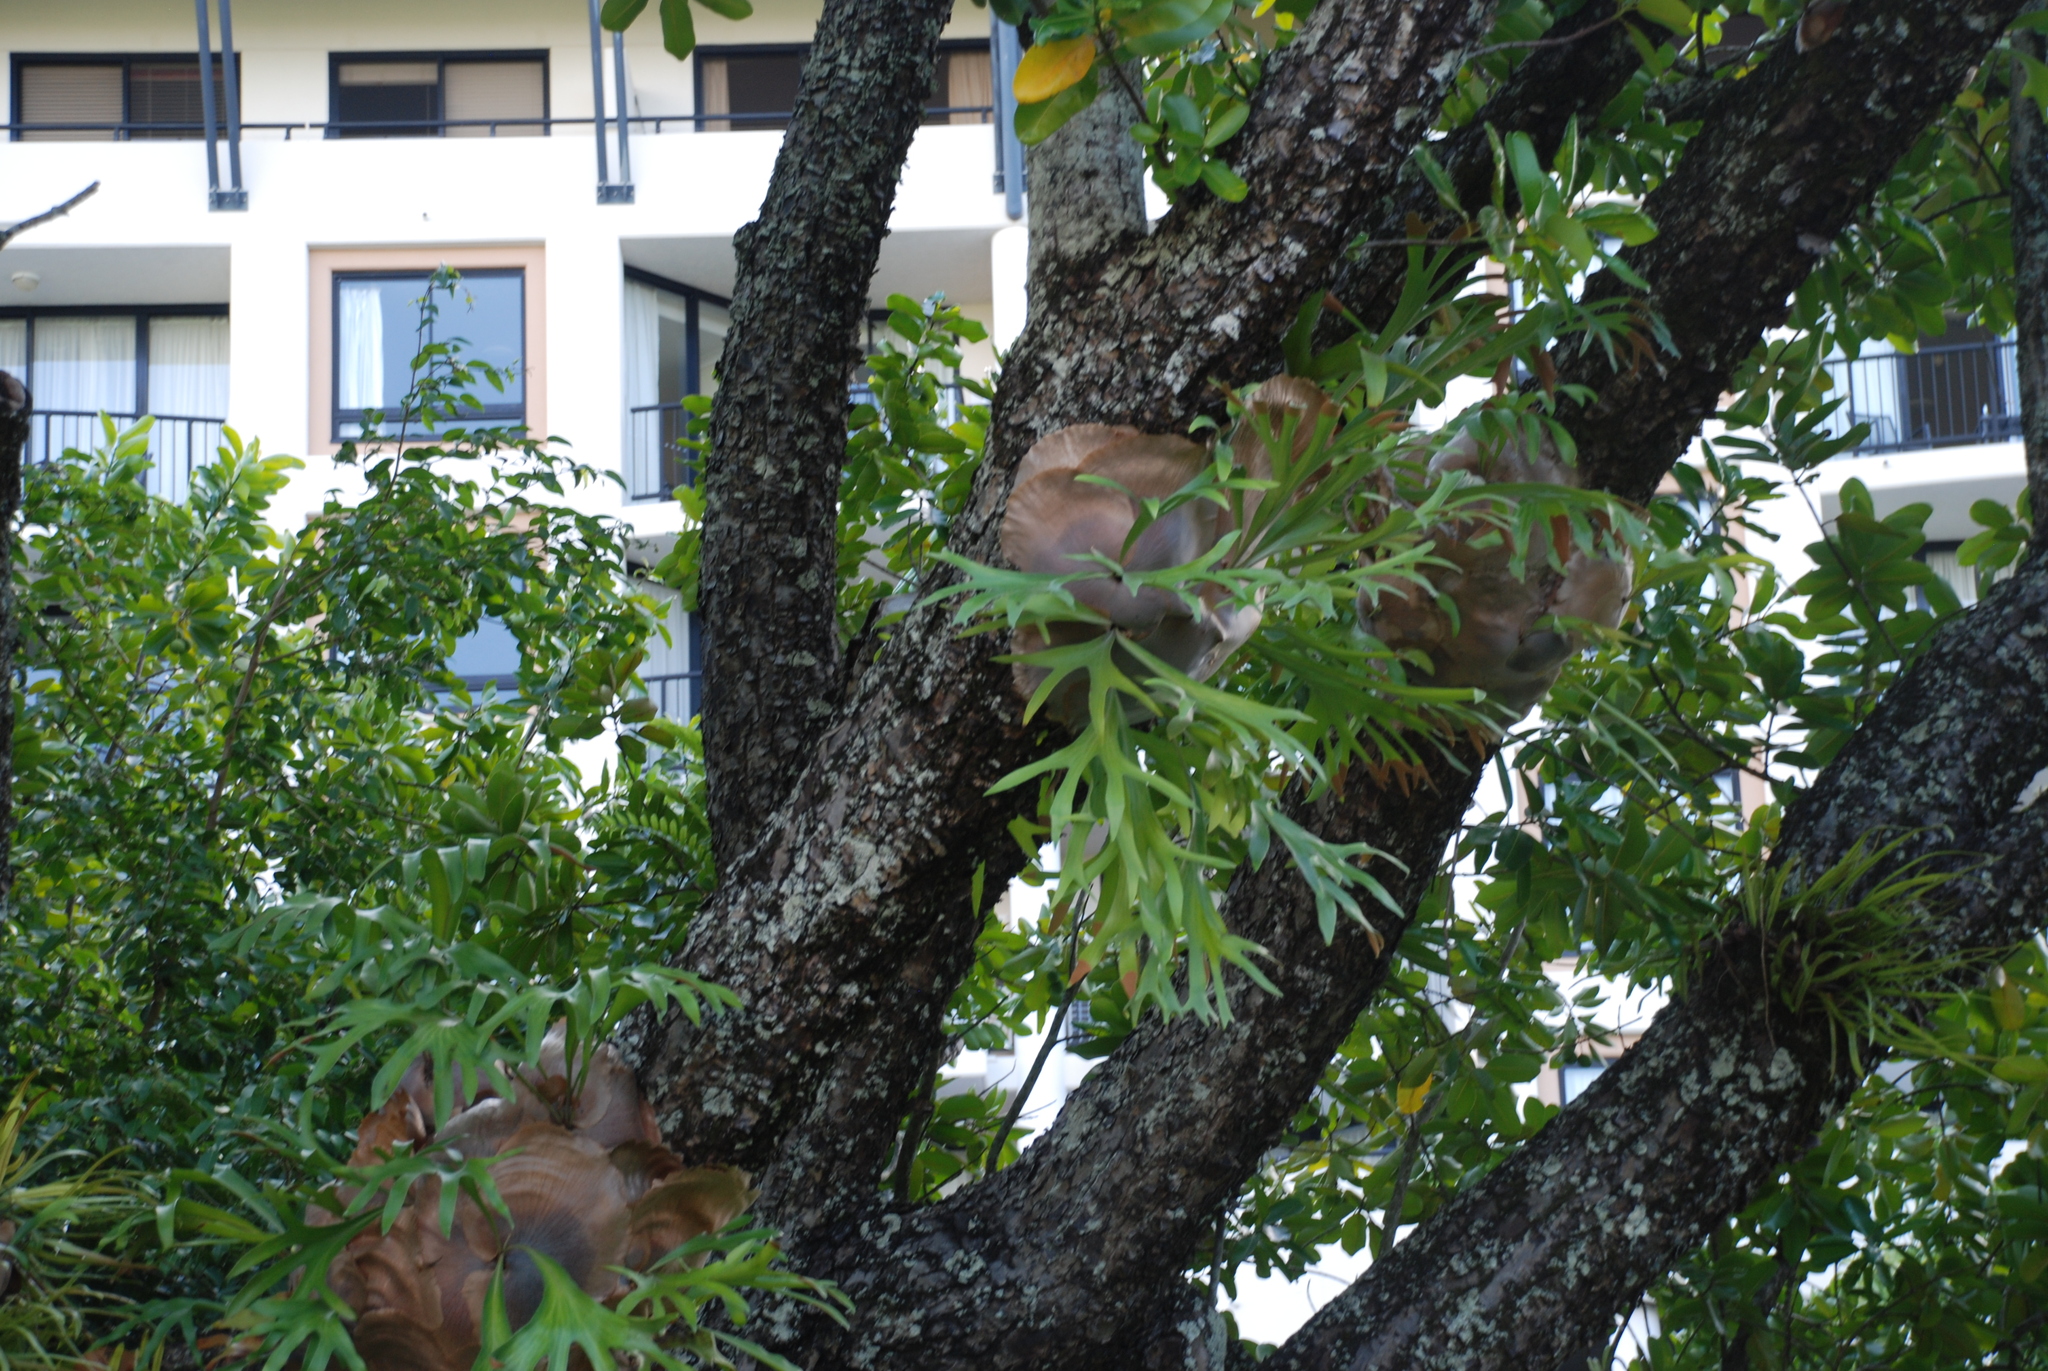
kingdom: Plantae
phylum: Tracheophyta
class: Polypodiopsida
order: Polypodiales
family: Polypodiaceae
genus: Platycerium
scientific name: Platycerium hillii
